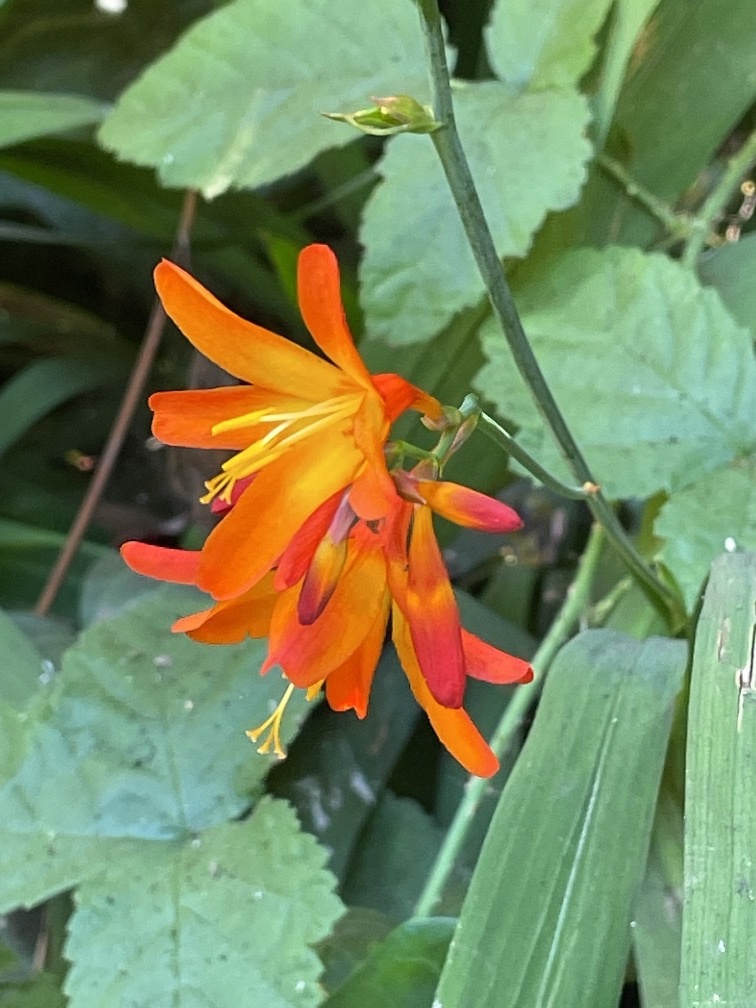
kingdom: Plantae
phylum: Tracheophyta
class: Liliopsida
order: Asparagales
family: Iridaceae
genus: Crocosmia
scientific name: Crocosmia crocosmiiflora
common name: Montbretia
